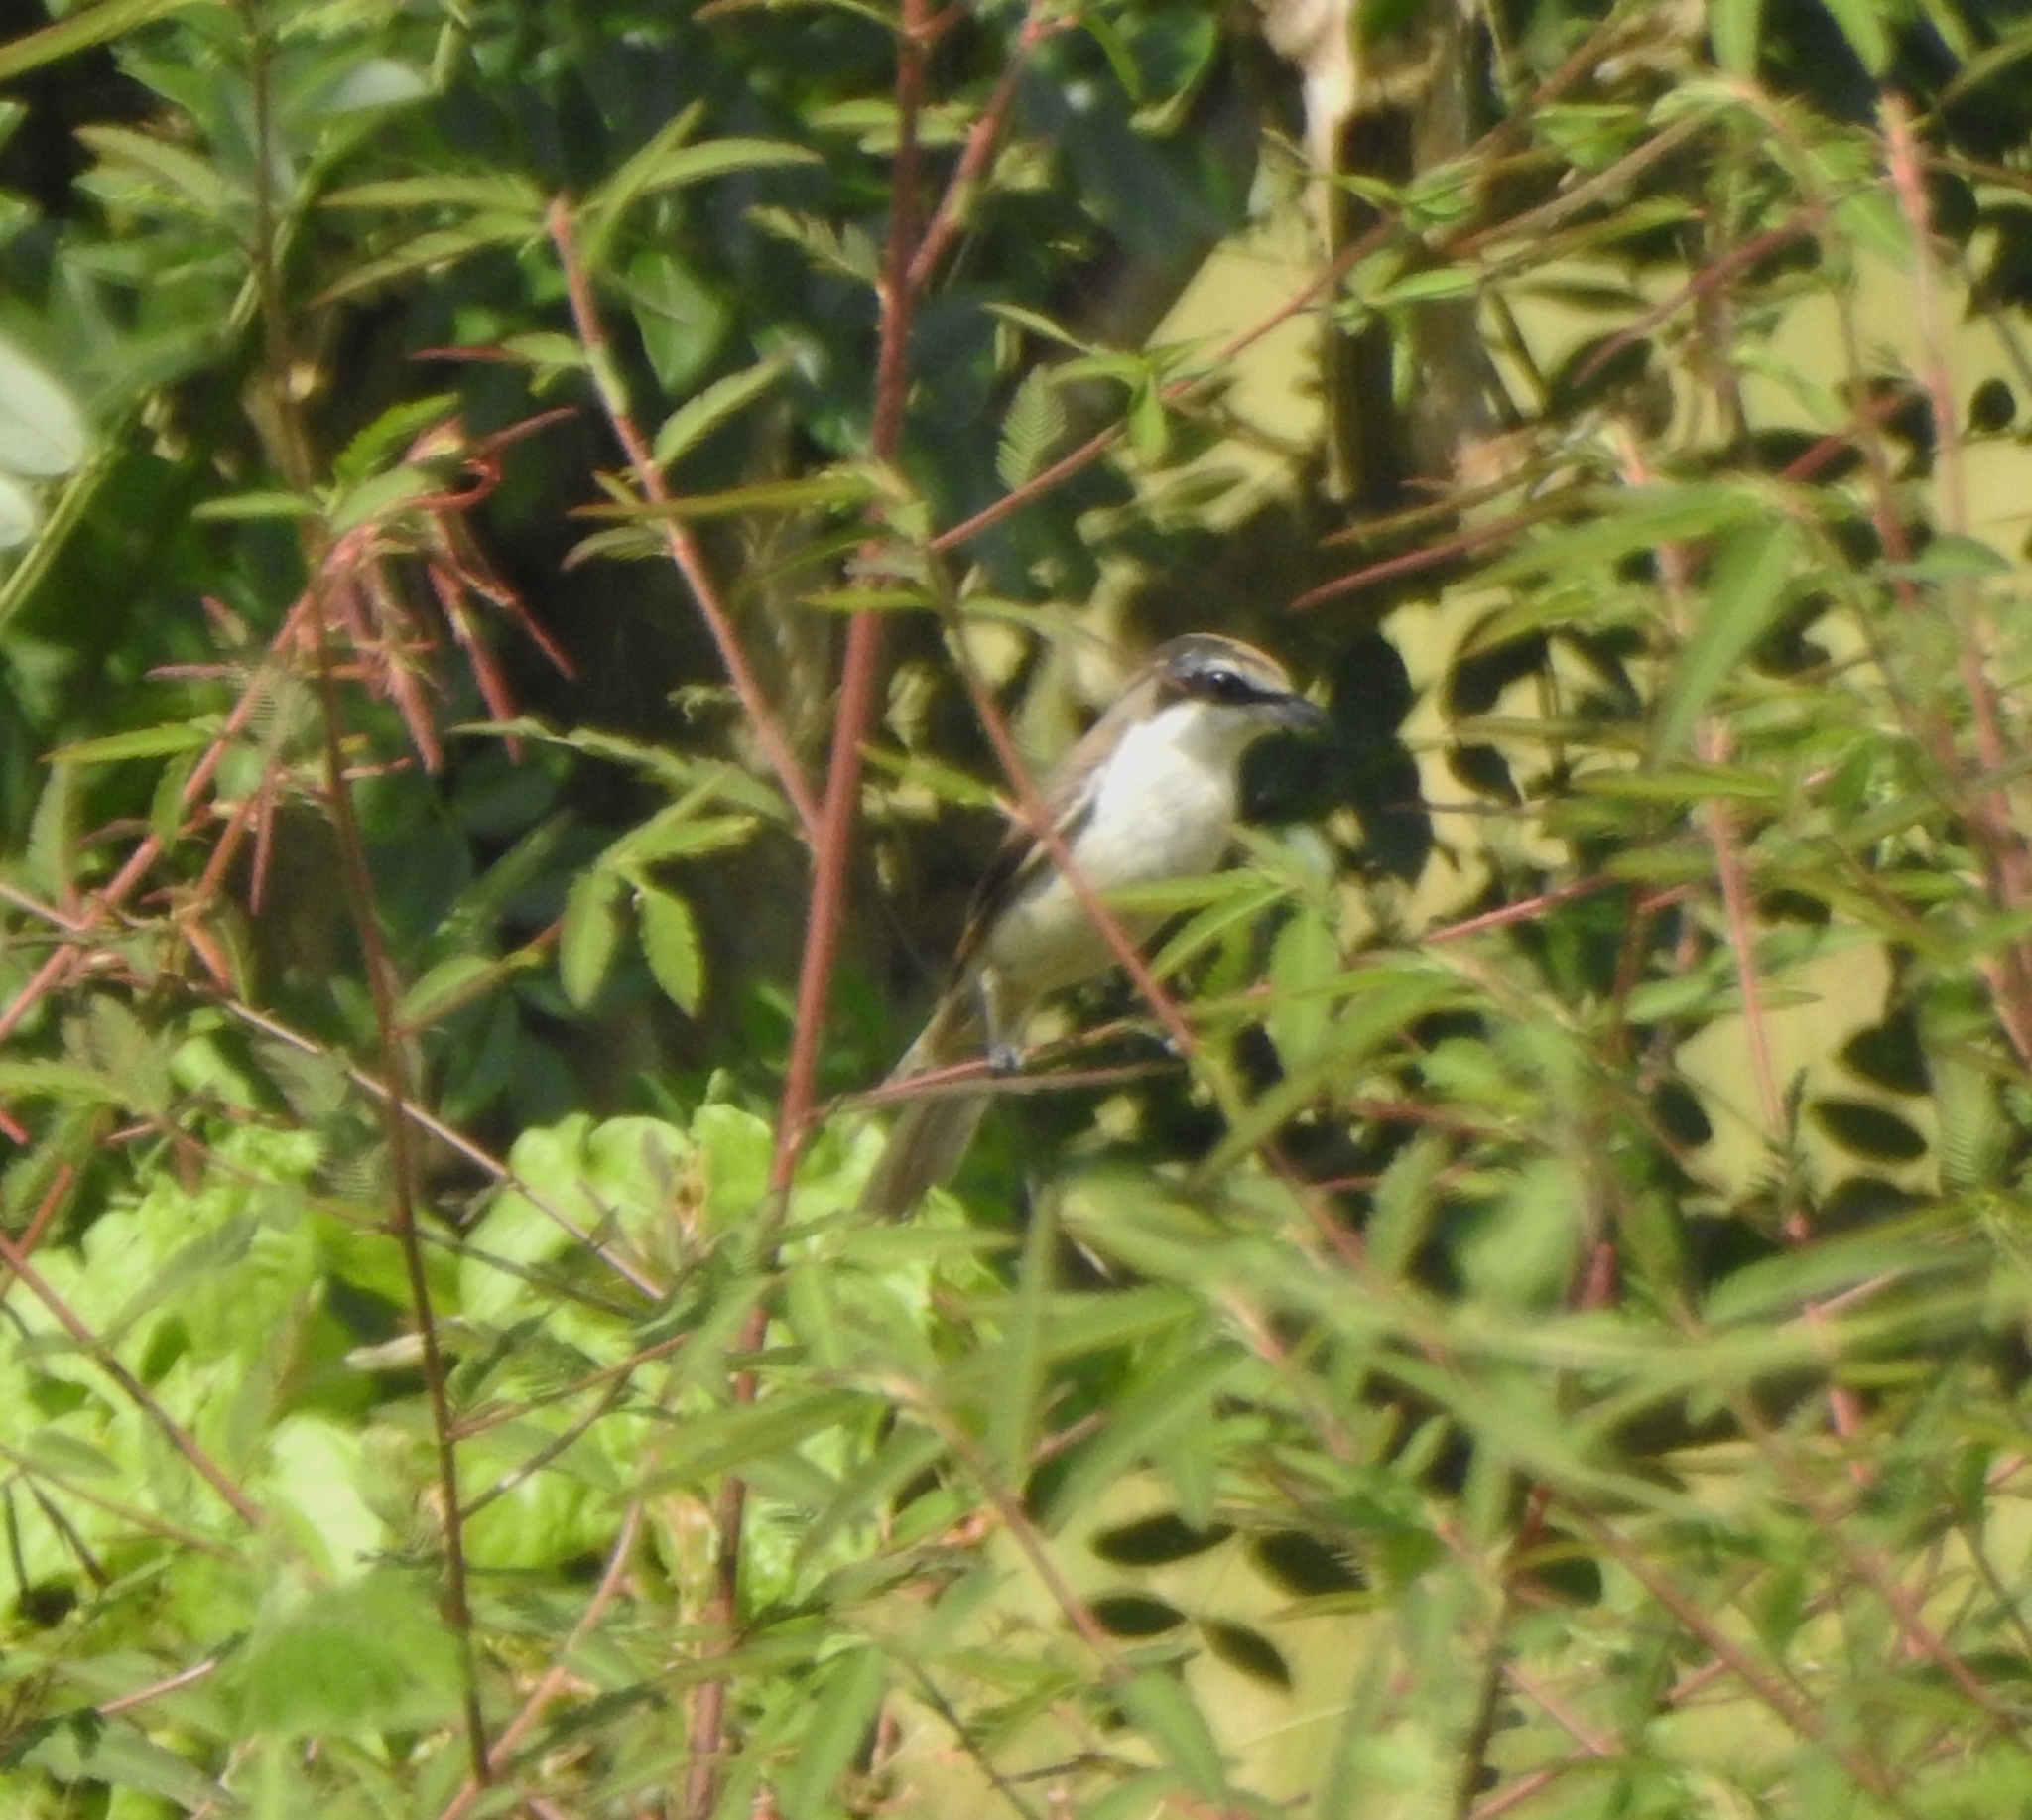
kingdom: Animalia
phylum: Chordata
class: Aves
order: Passeriformes
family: Laniidae
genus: Lanius
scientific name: Lanius cristatus
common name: Brown shrike
